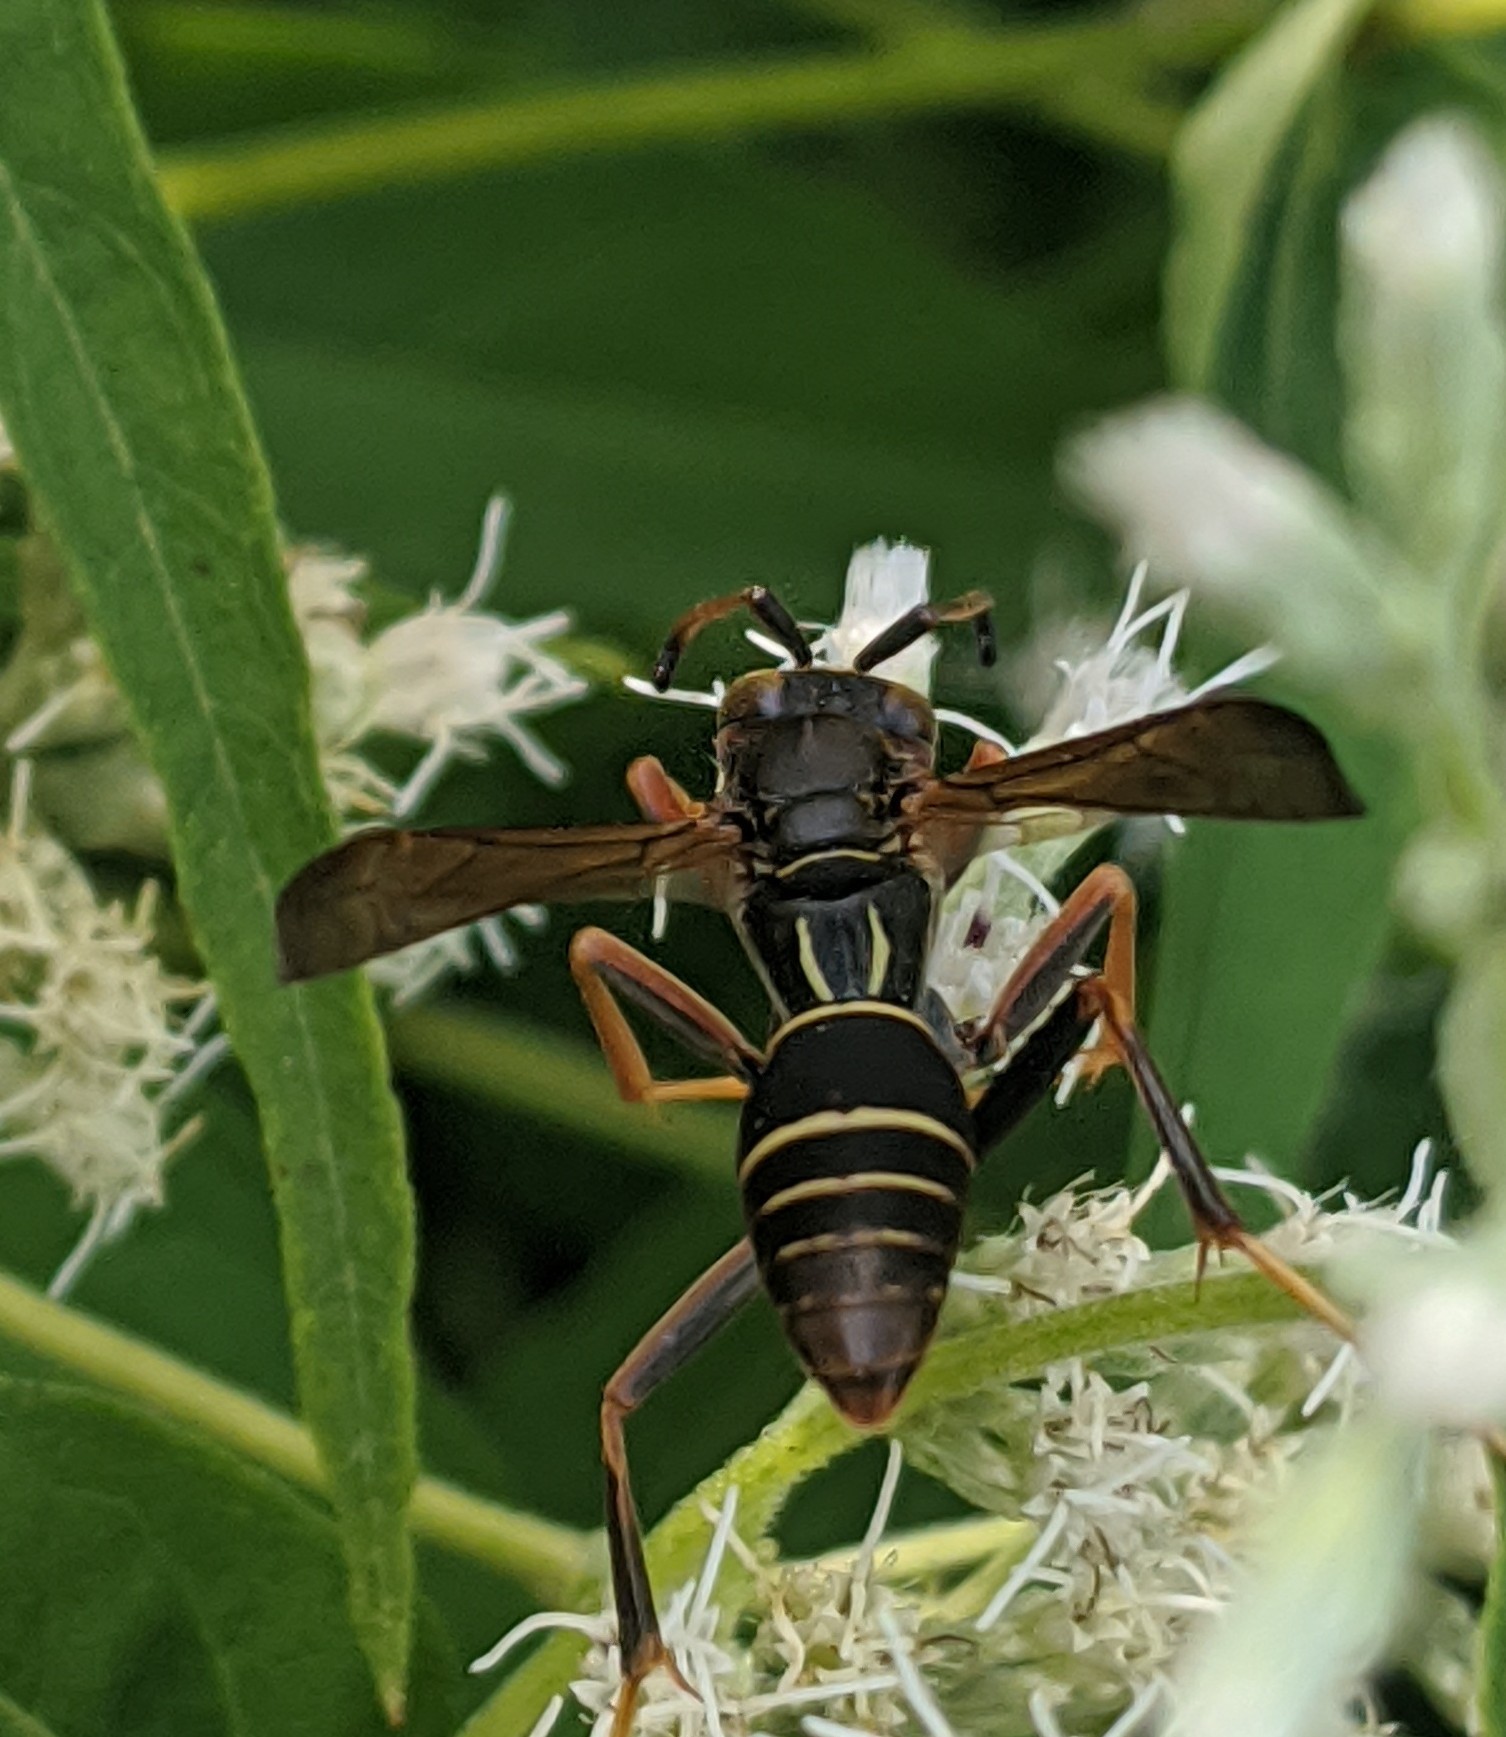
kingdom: Animalia
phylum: Arthropoda
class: Insecta
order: Hymenoptera
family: Eumenidae
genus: Polistes
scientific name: Polistes fuscatus
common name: Dark paper wasp
